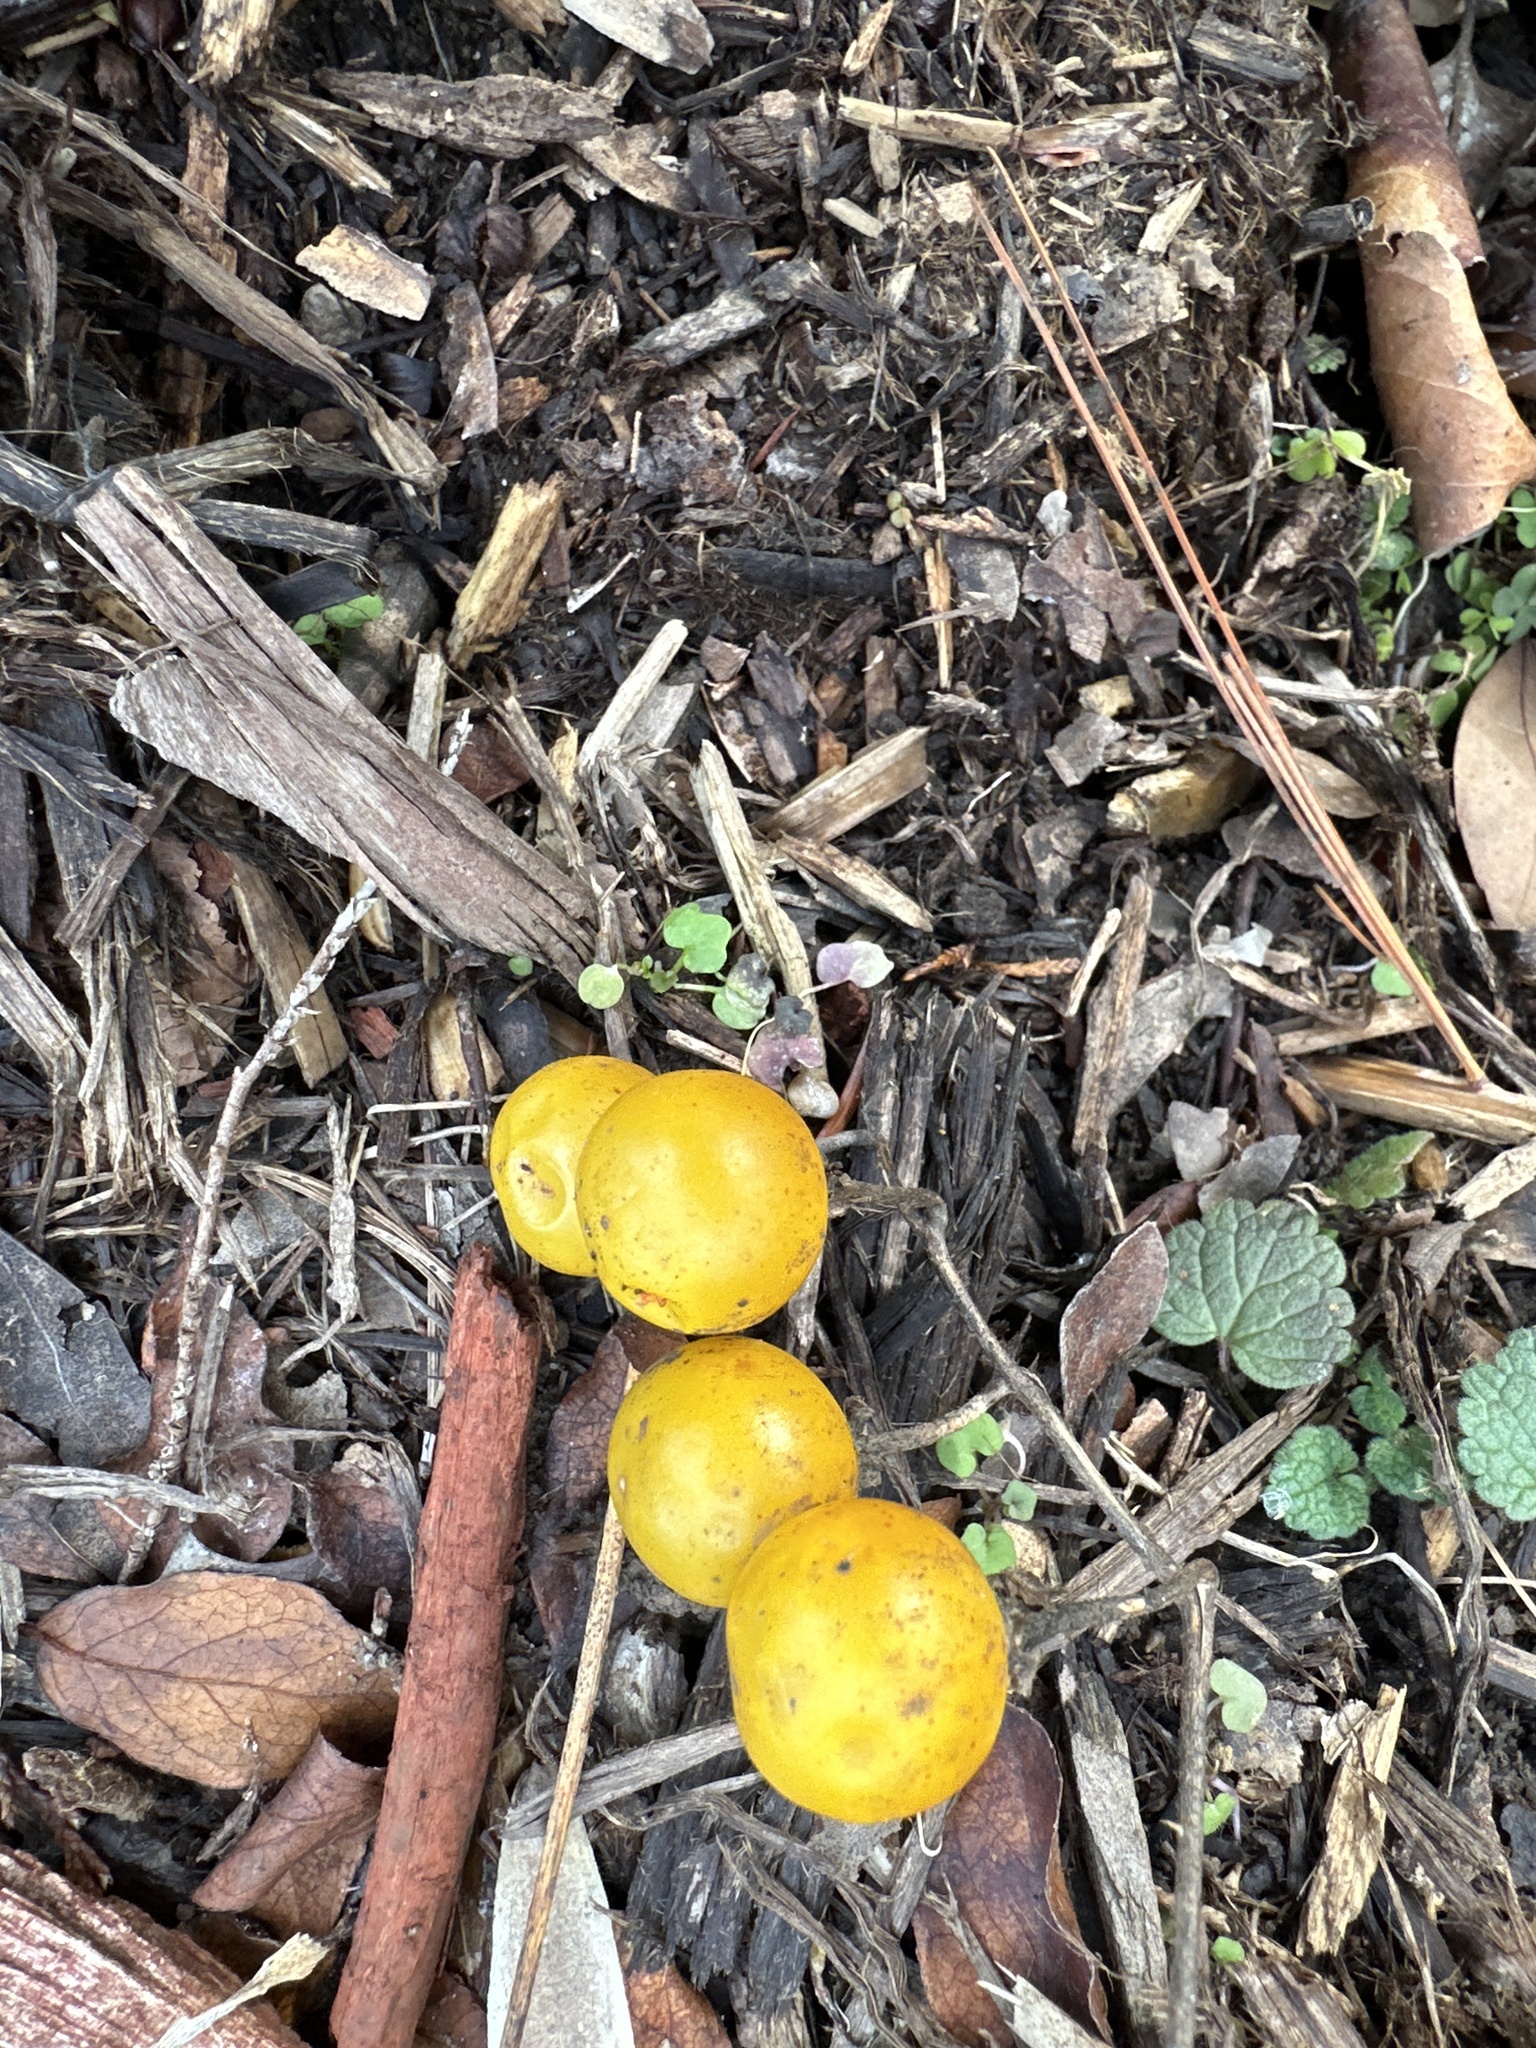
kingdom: Plantae
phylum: Tracheophyta
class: Magnoliopsida
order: Solanales
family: Solanaceae
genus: Solanum
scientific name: Solanum carolinense
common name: Horse-nettle
